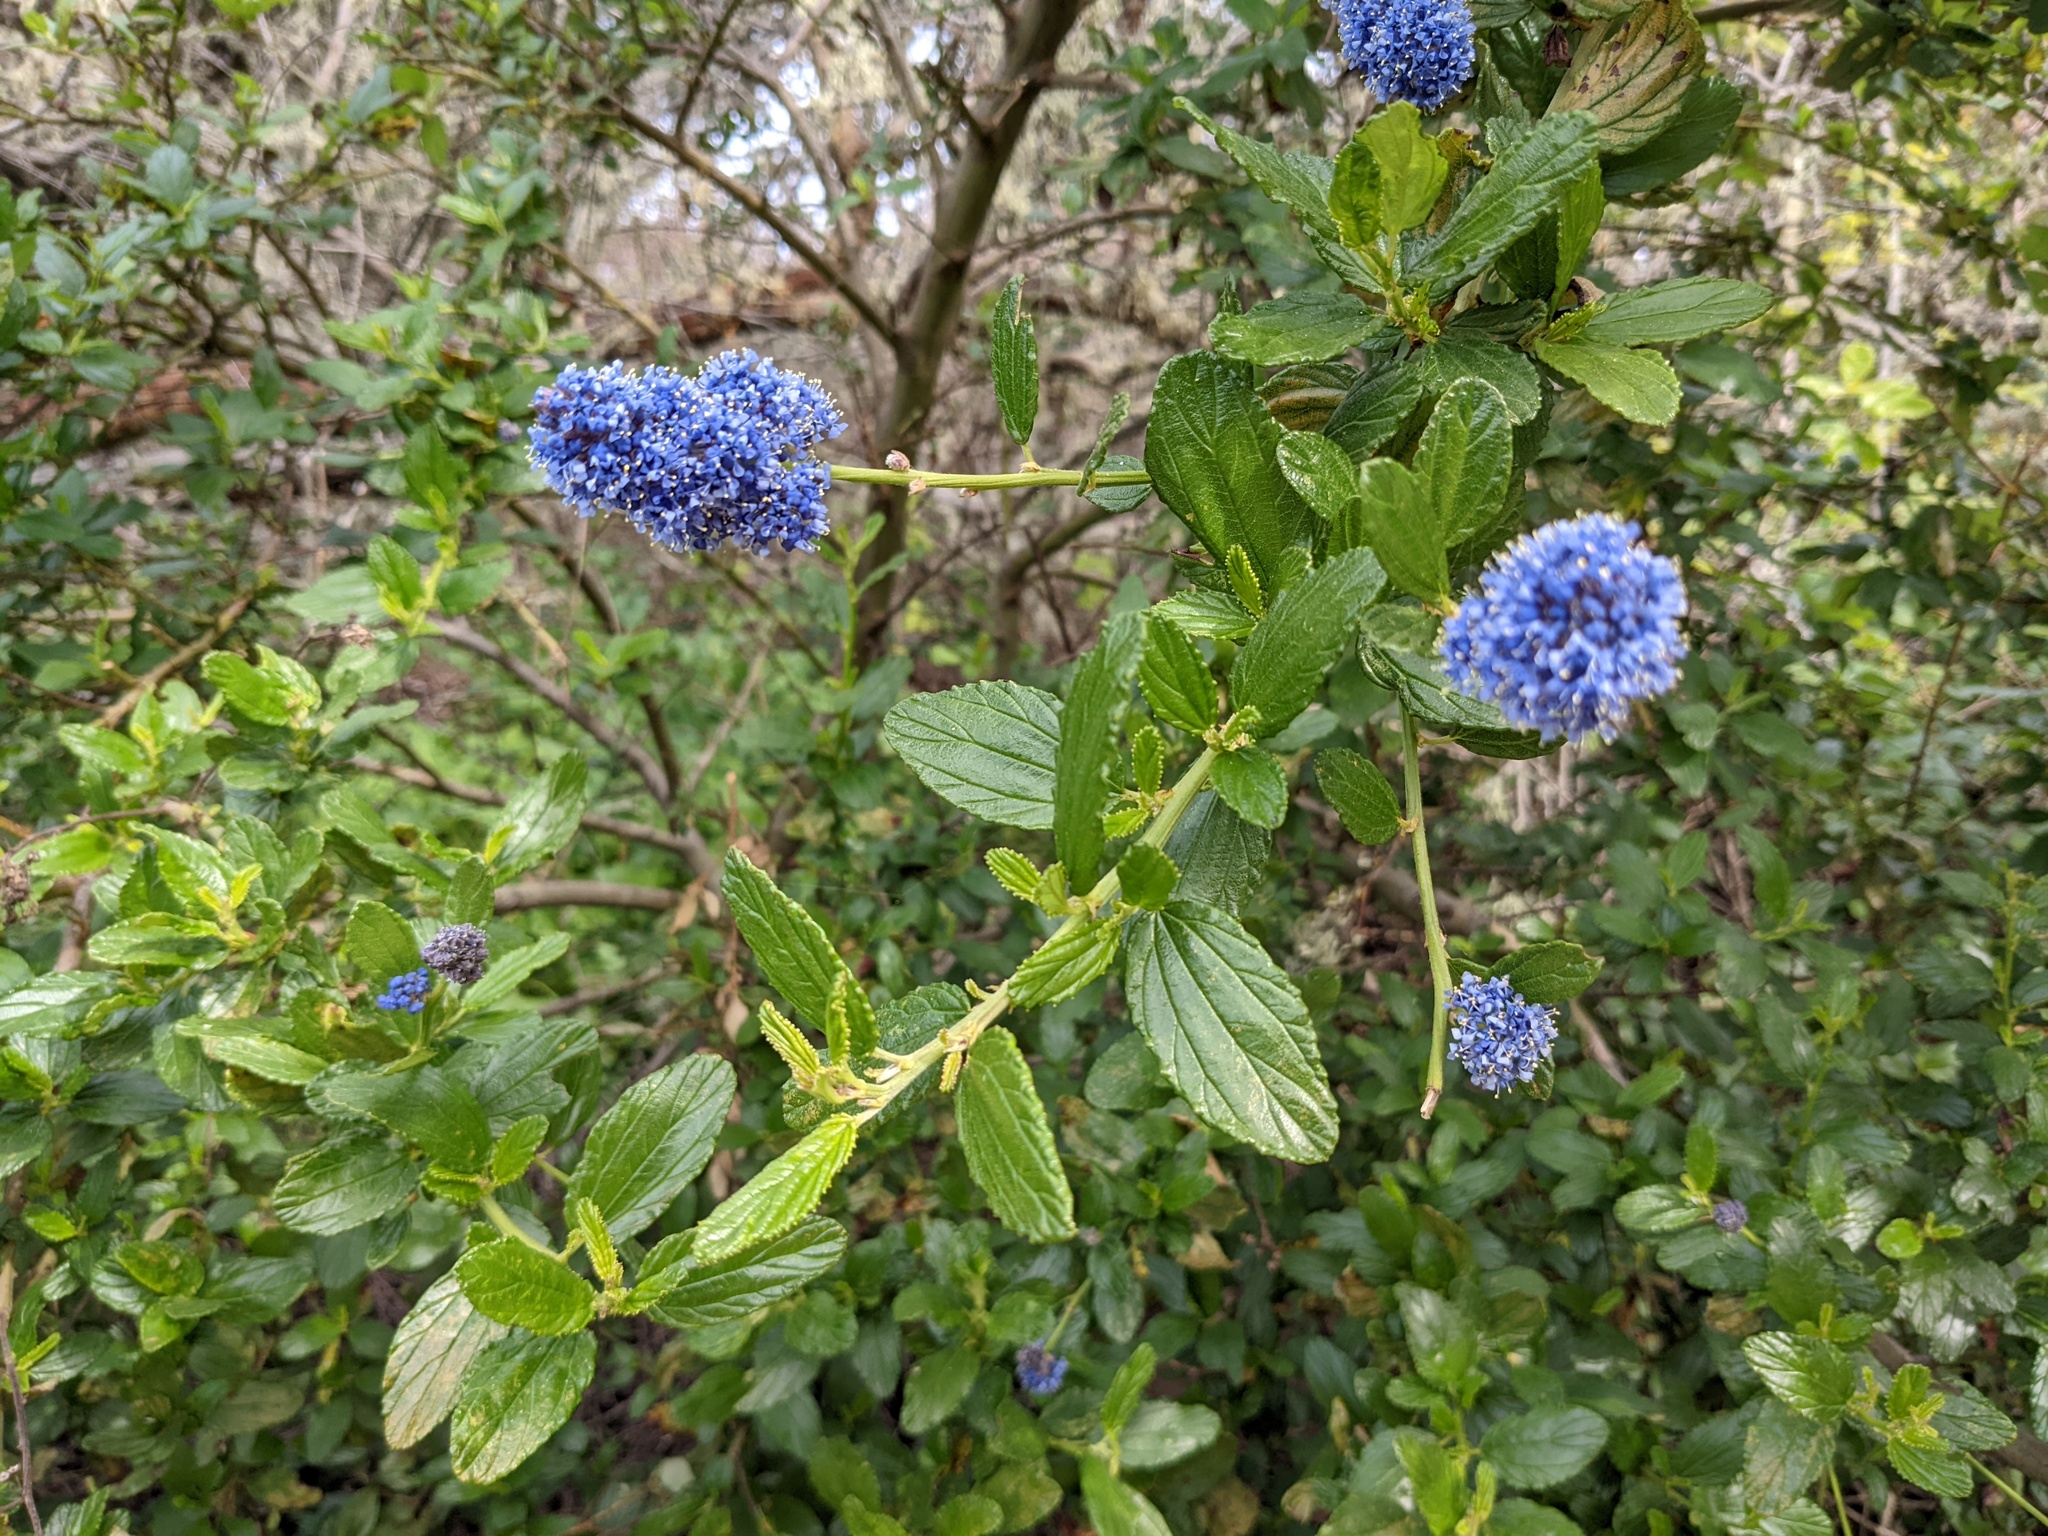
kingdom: Plantae
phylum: Tracheophyta
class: Magnoliopsida
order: Rosales
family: Rhamnaceae
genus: Ceanothus
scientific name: Ceanothus thyrsiflorus
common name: California-lilac
